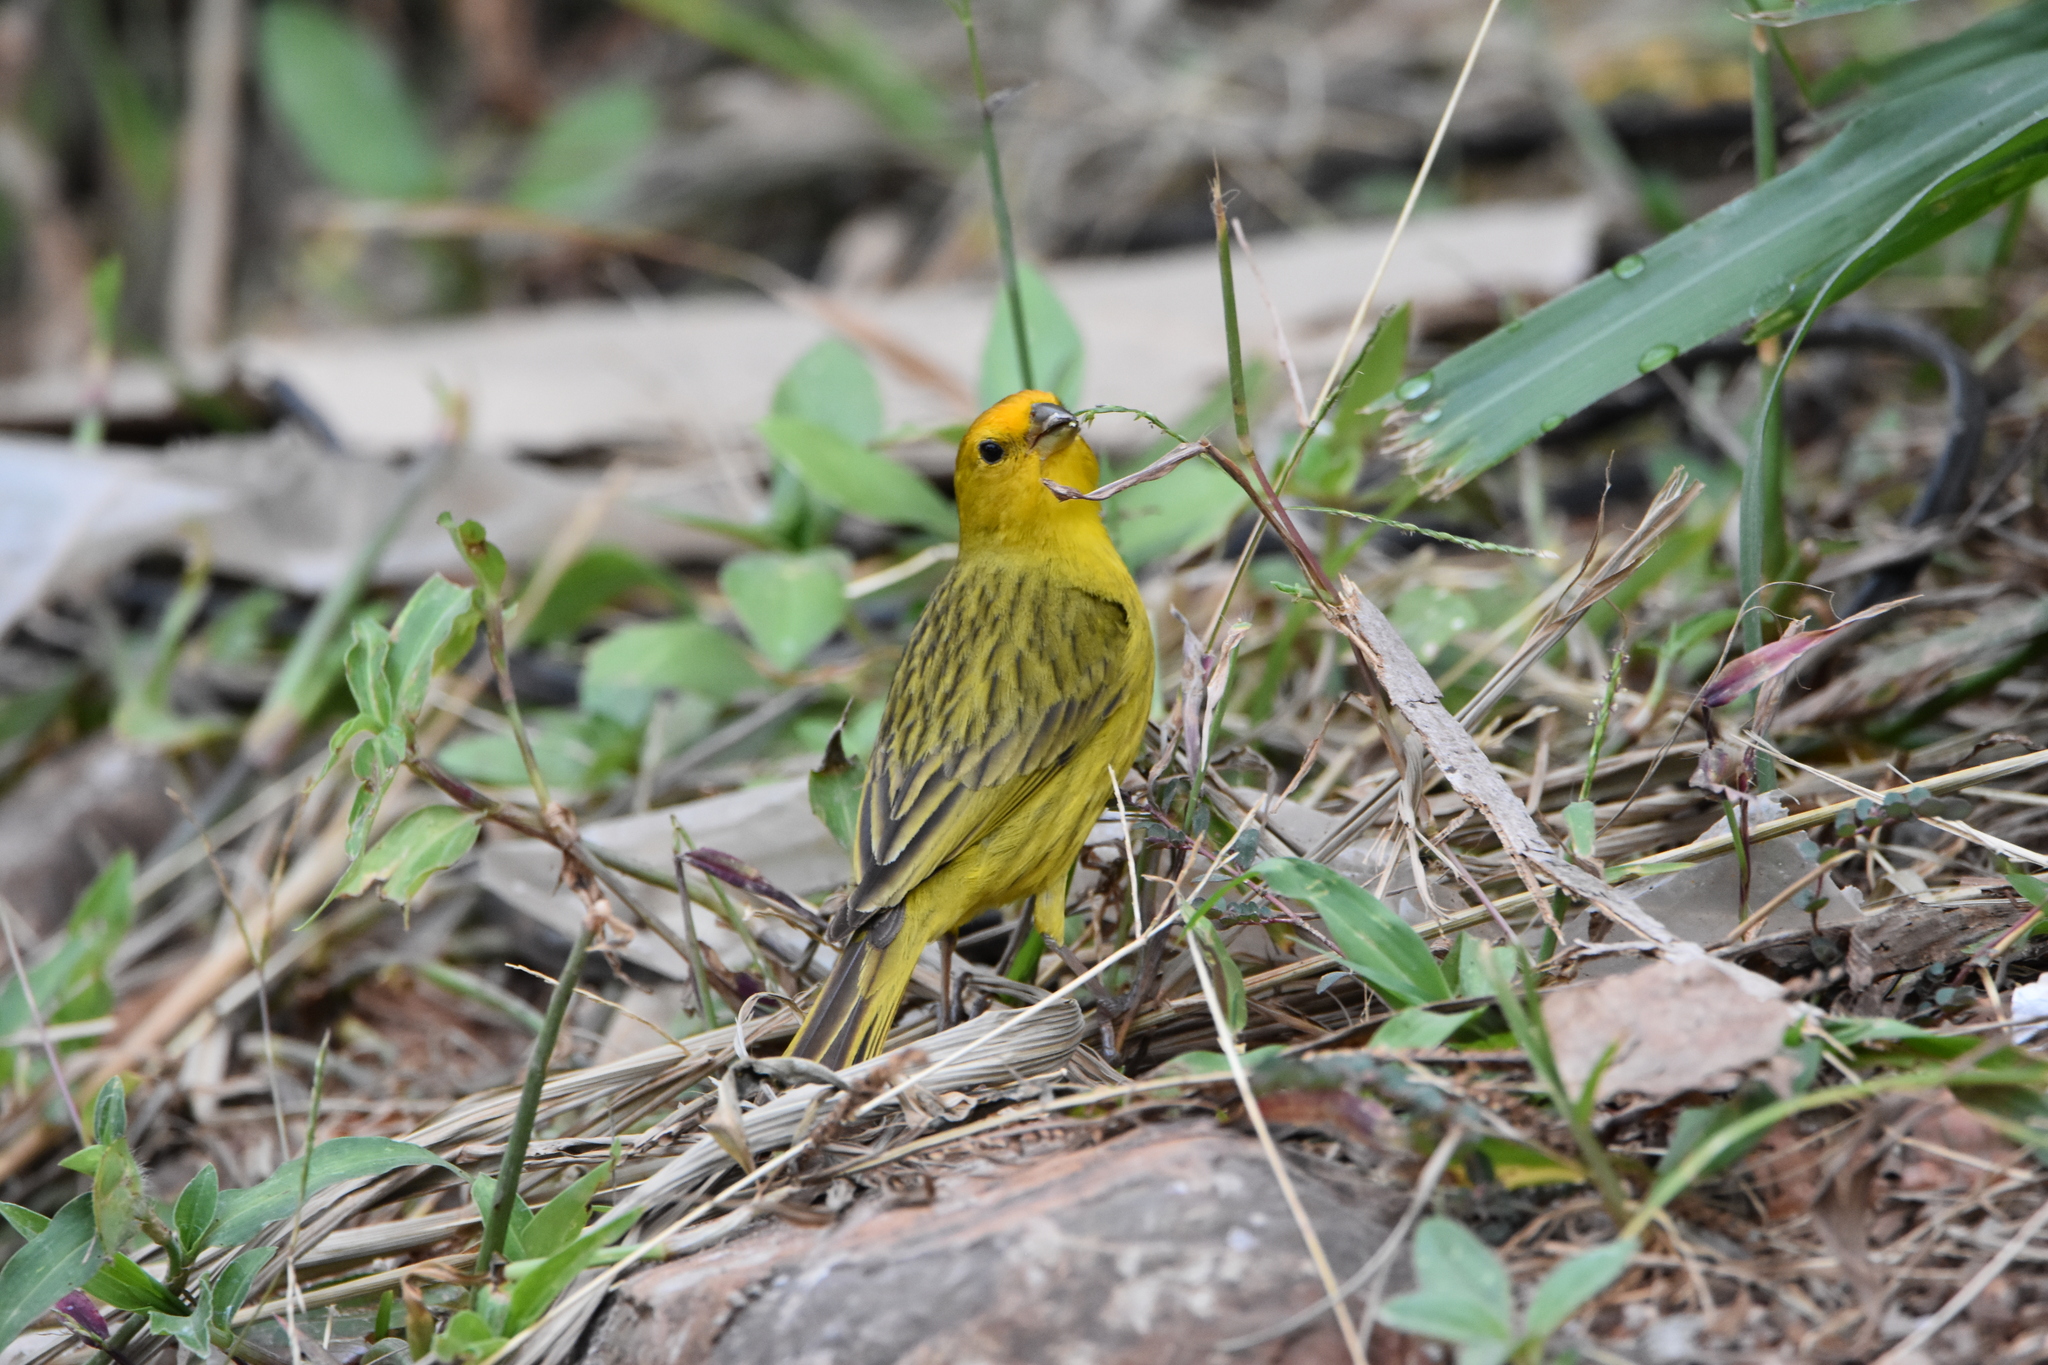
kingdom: Animalia
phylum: Chordata
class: Aves
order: Passeriformes
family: Thraupidae
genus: Sicalis
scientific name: Sicalis flaveola
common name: Saffron finch
